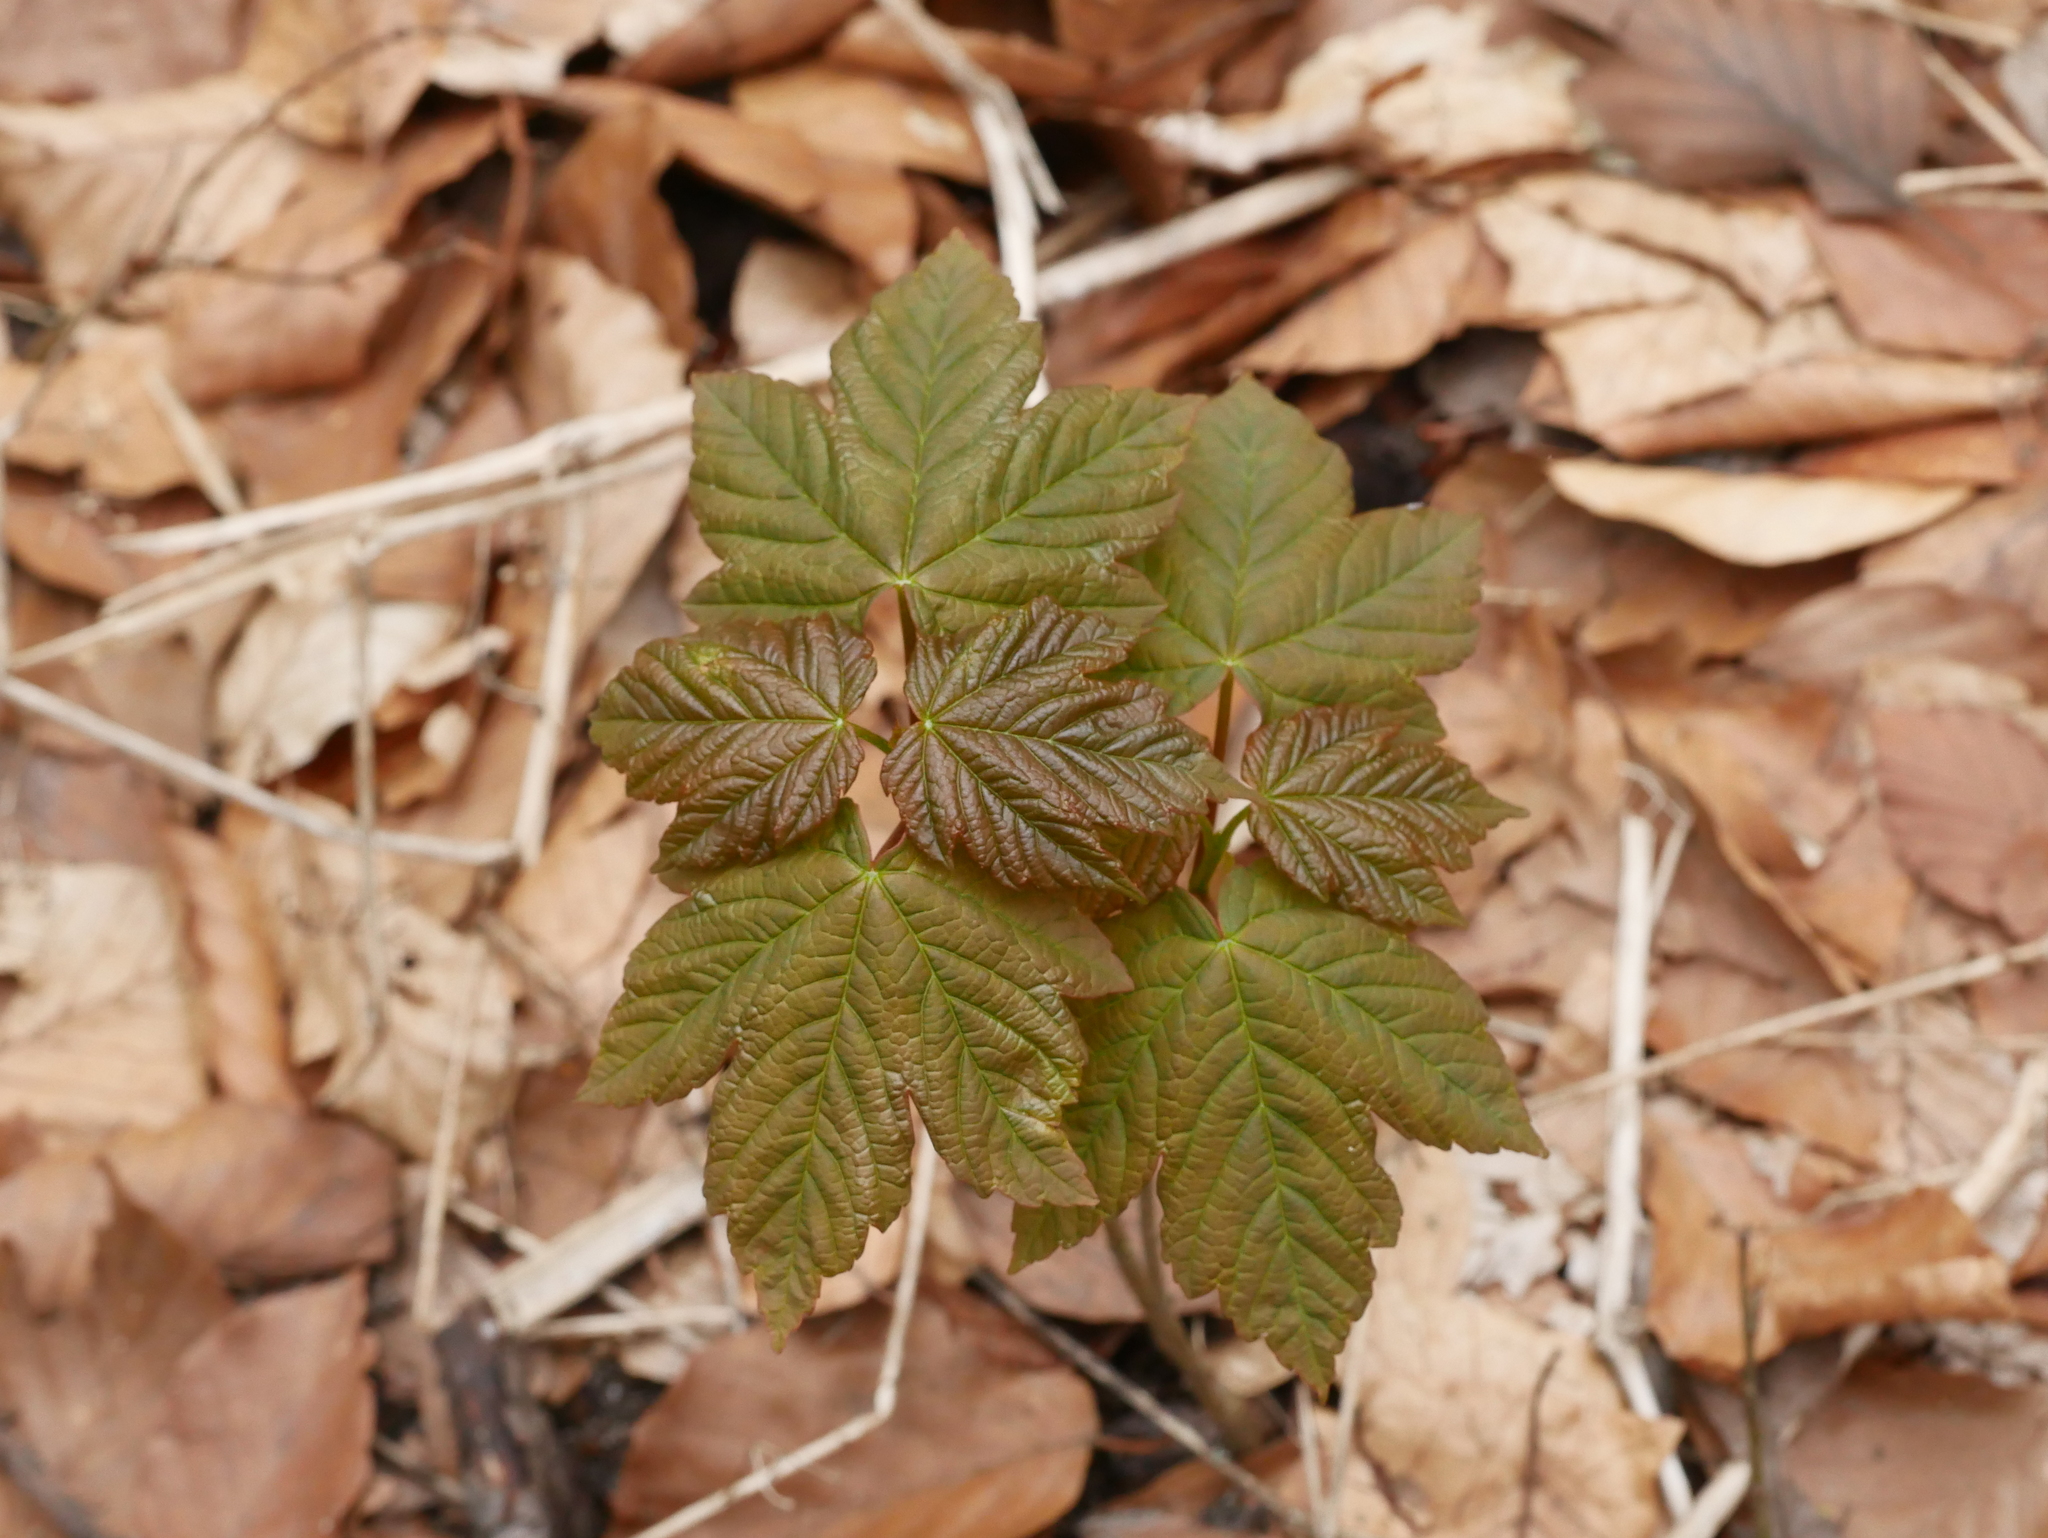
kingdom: Plantae
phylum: Tracheophyta
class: Magnoliopsida
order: Sapindales
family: Sapindaceae
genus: Acer
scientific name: Acer pseudoplatanus
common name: Sycamore
